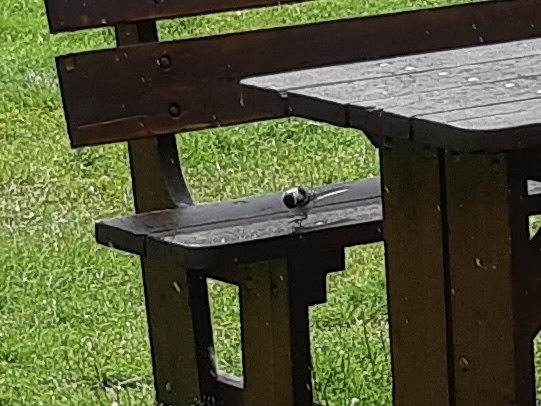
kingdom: Animalia
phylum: Chordata
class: Aves
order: Passeriformes
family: Motacillidae
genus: Motacilla
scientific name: Motacilla alba
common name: White wagtail
